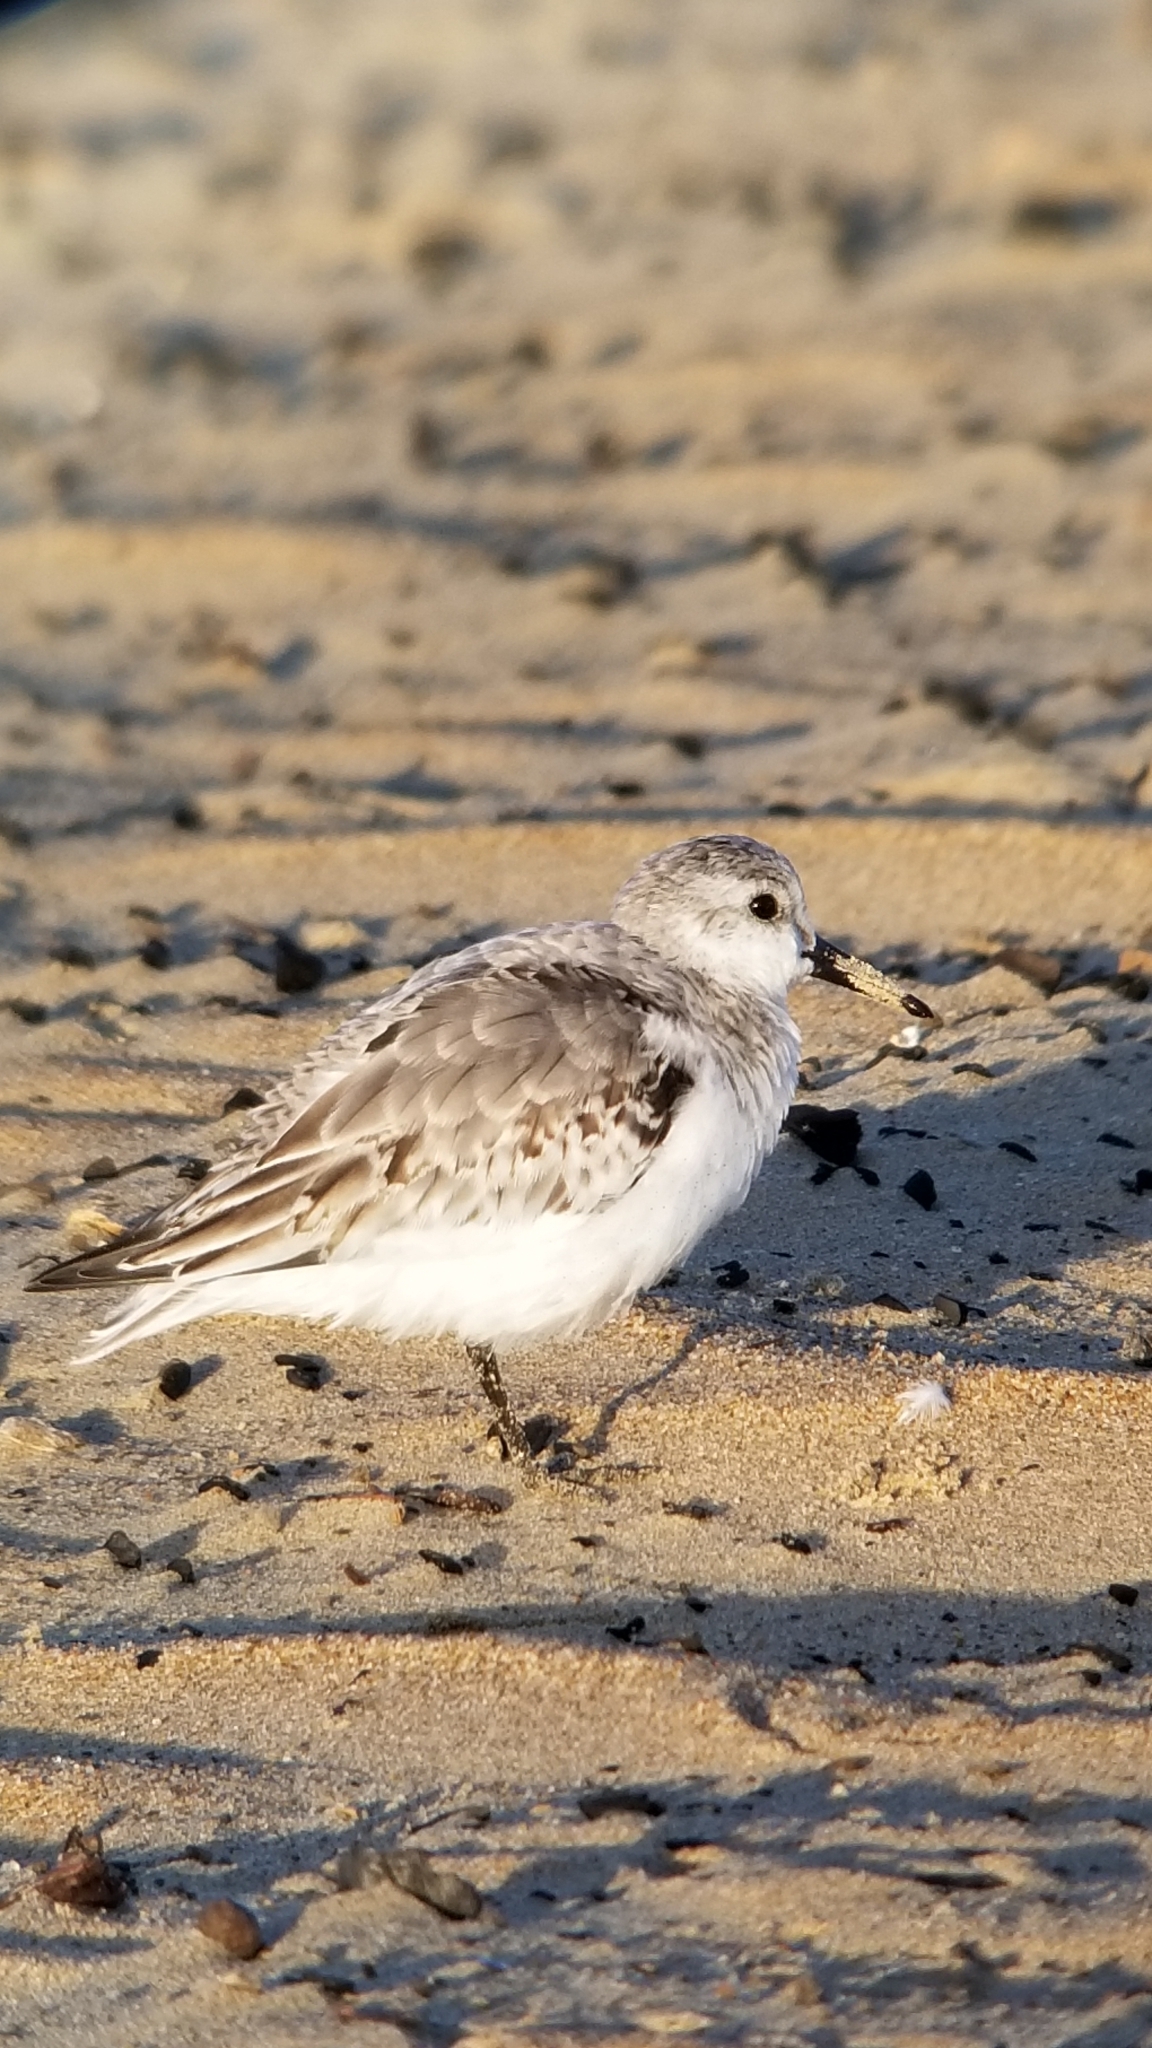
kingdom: Animalia
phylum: Chordata
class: Aves
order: Charadriiformes
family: Scolopacidae
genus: Calidris
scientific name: Calidris alba
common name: Sanderling
